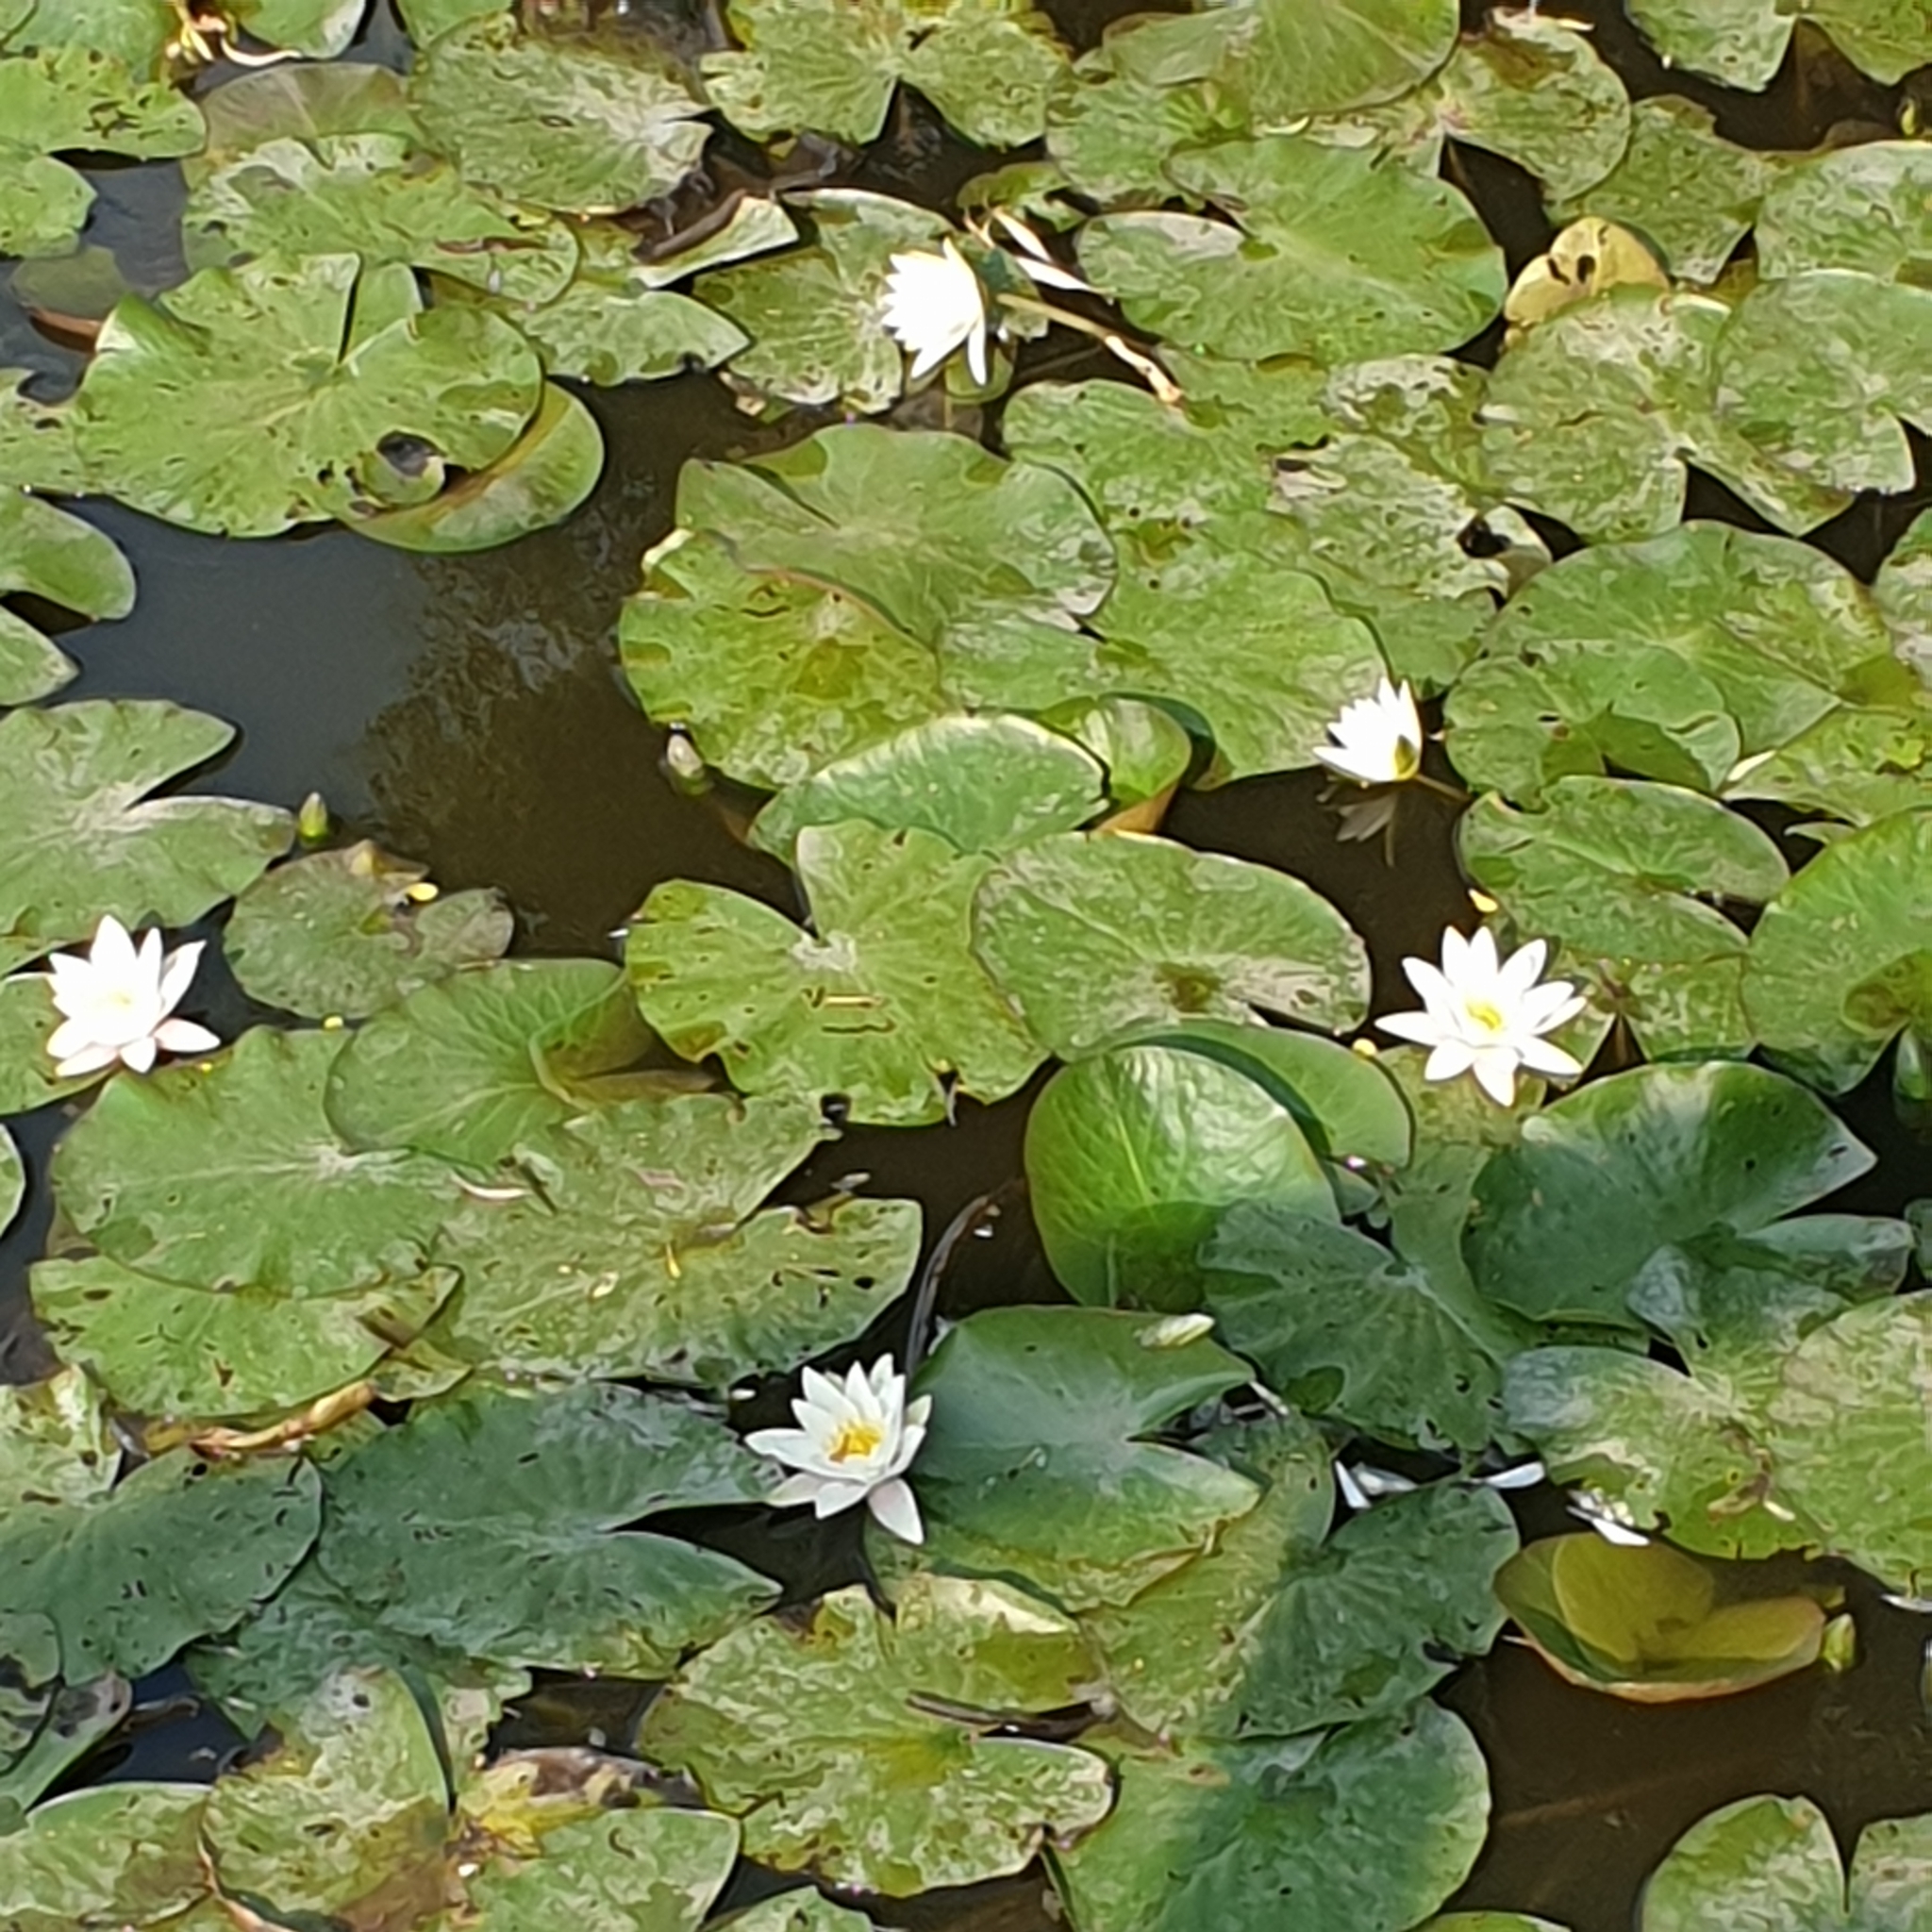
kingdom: Plantae
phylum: Tracheophyta
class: Magnoliopsida
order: Nymphaeales
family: Nymphaeaceae
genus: Nymphaea
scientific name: Nymphaea alba
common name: White water-lily
